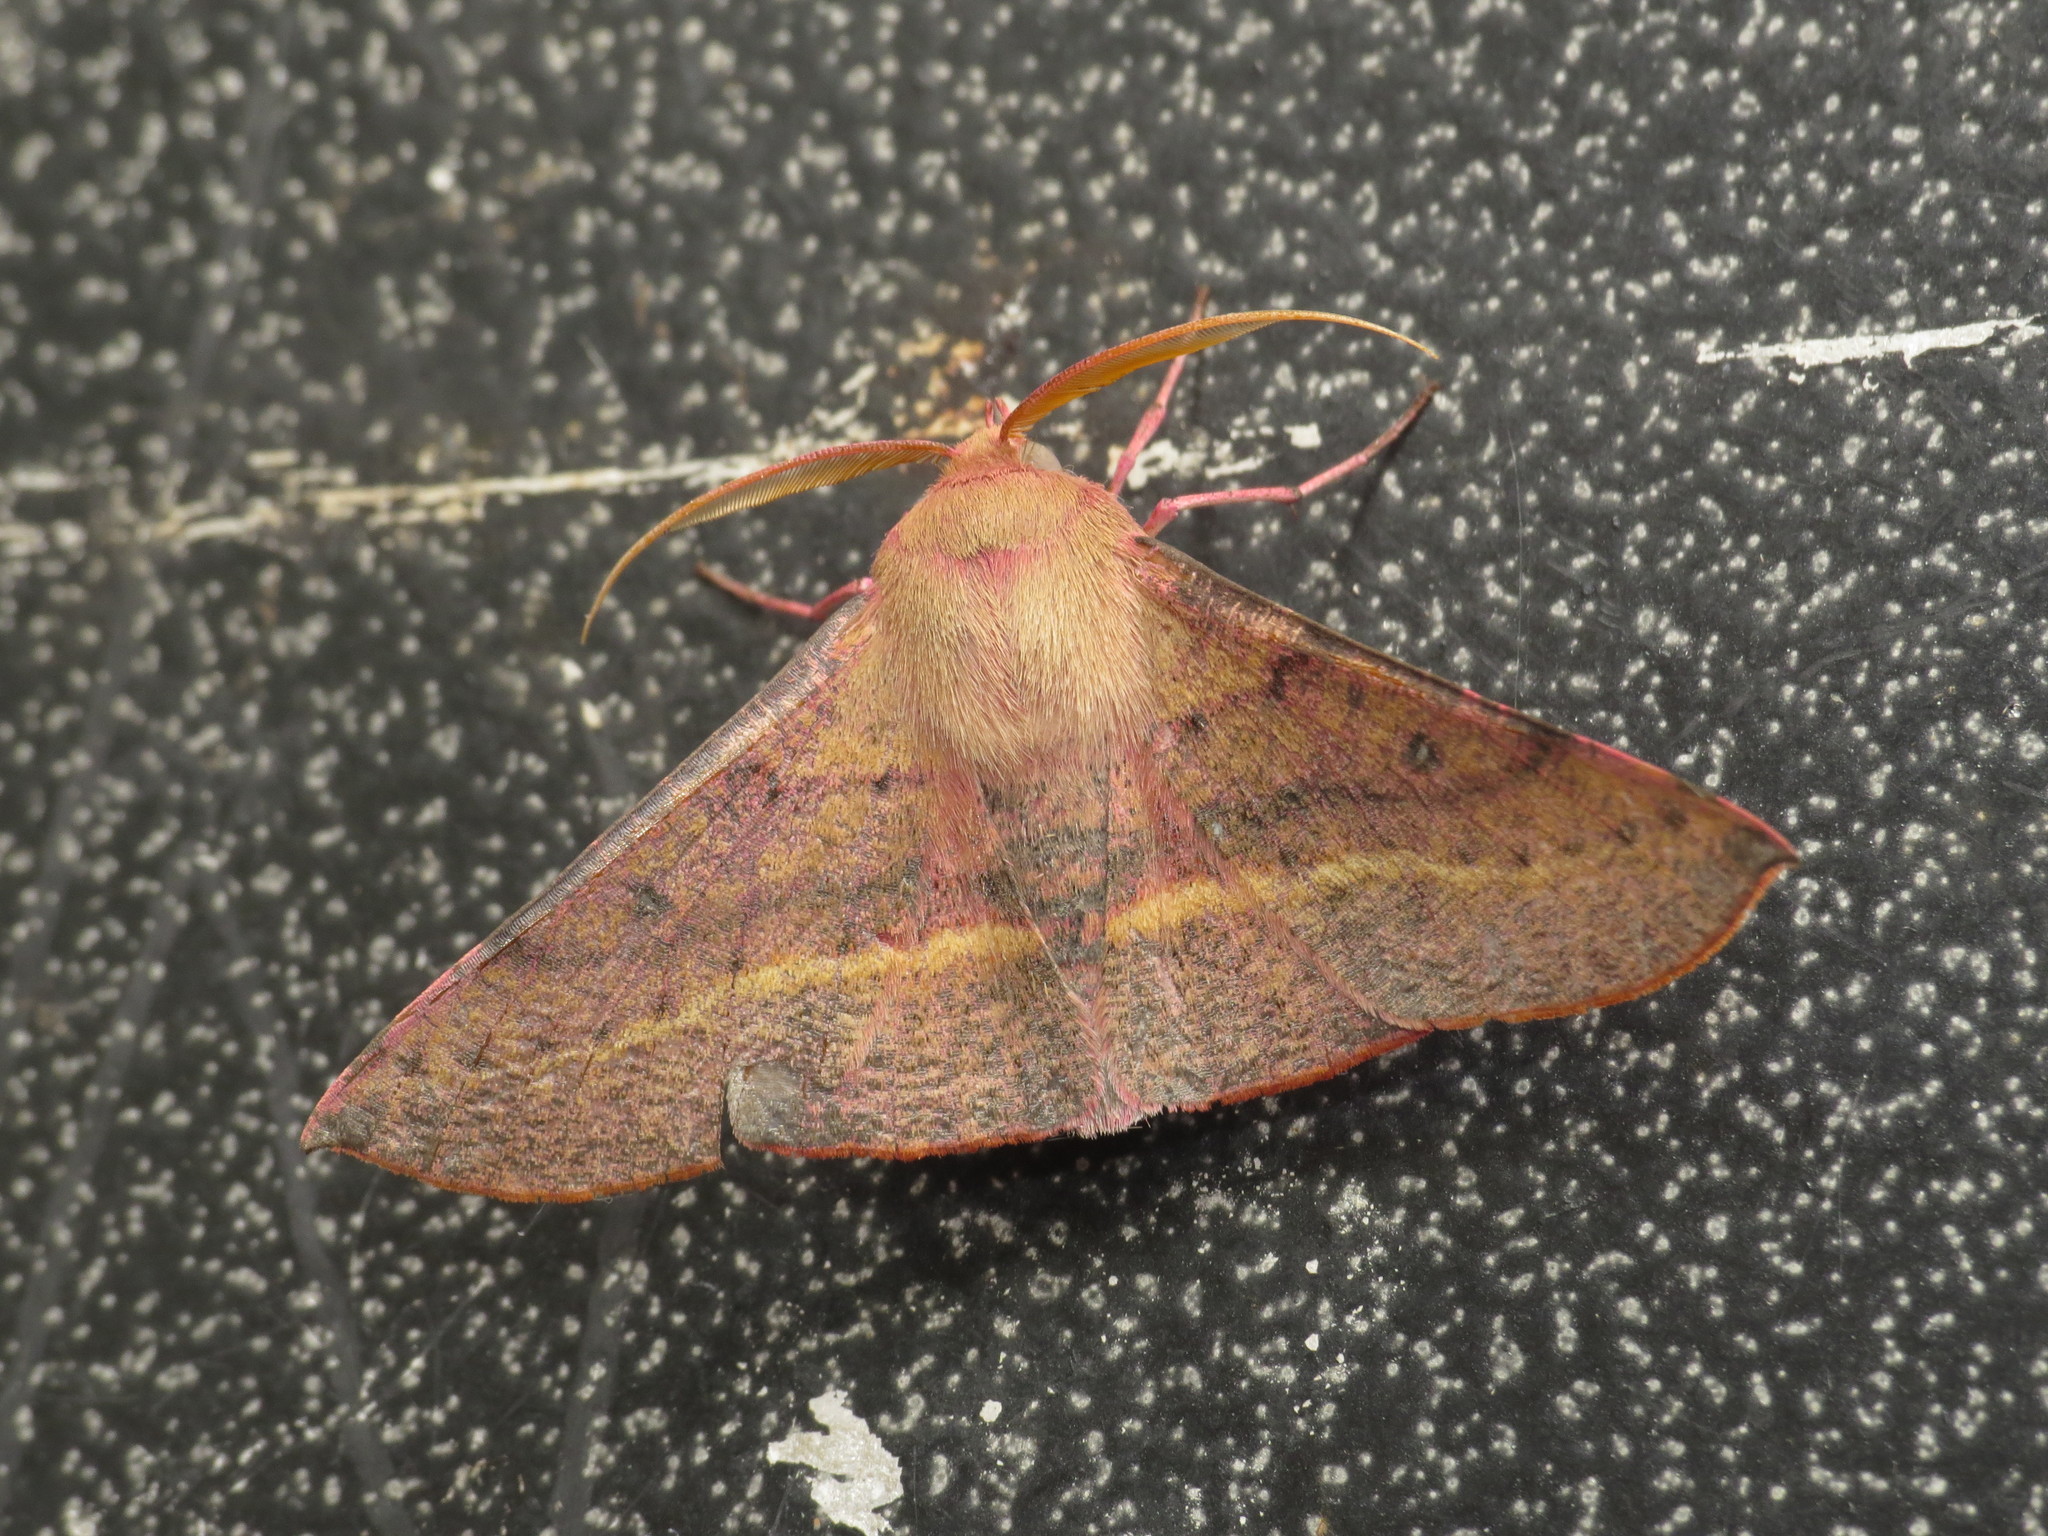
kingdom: Animalia
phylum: Arthropoda
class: Insecta
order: Lepidoptera
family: Geometridae
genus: Oenochroma
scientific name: Oenochroma vinaria
